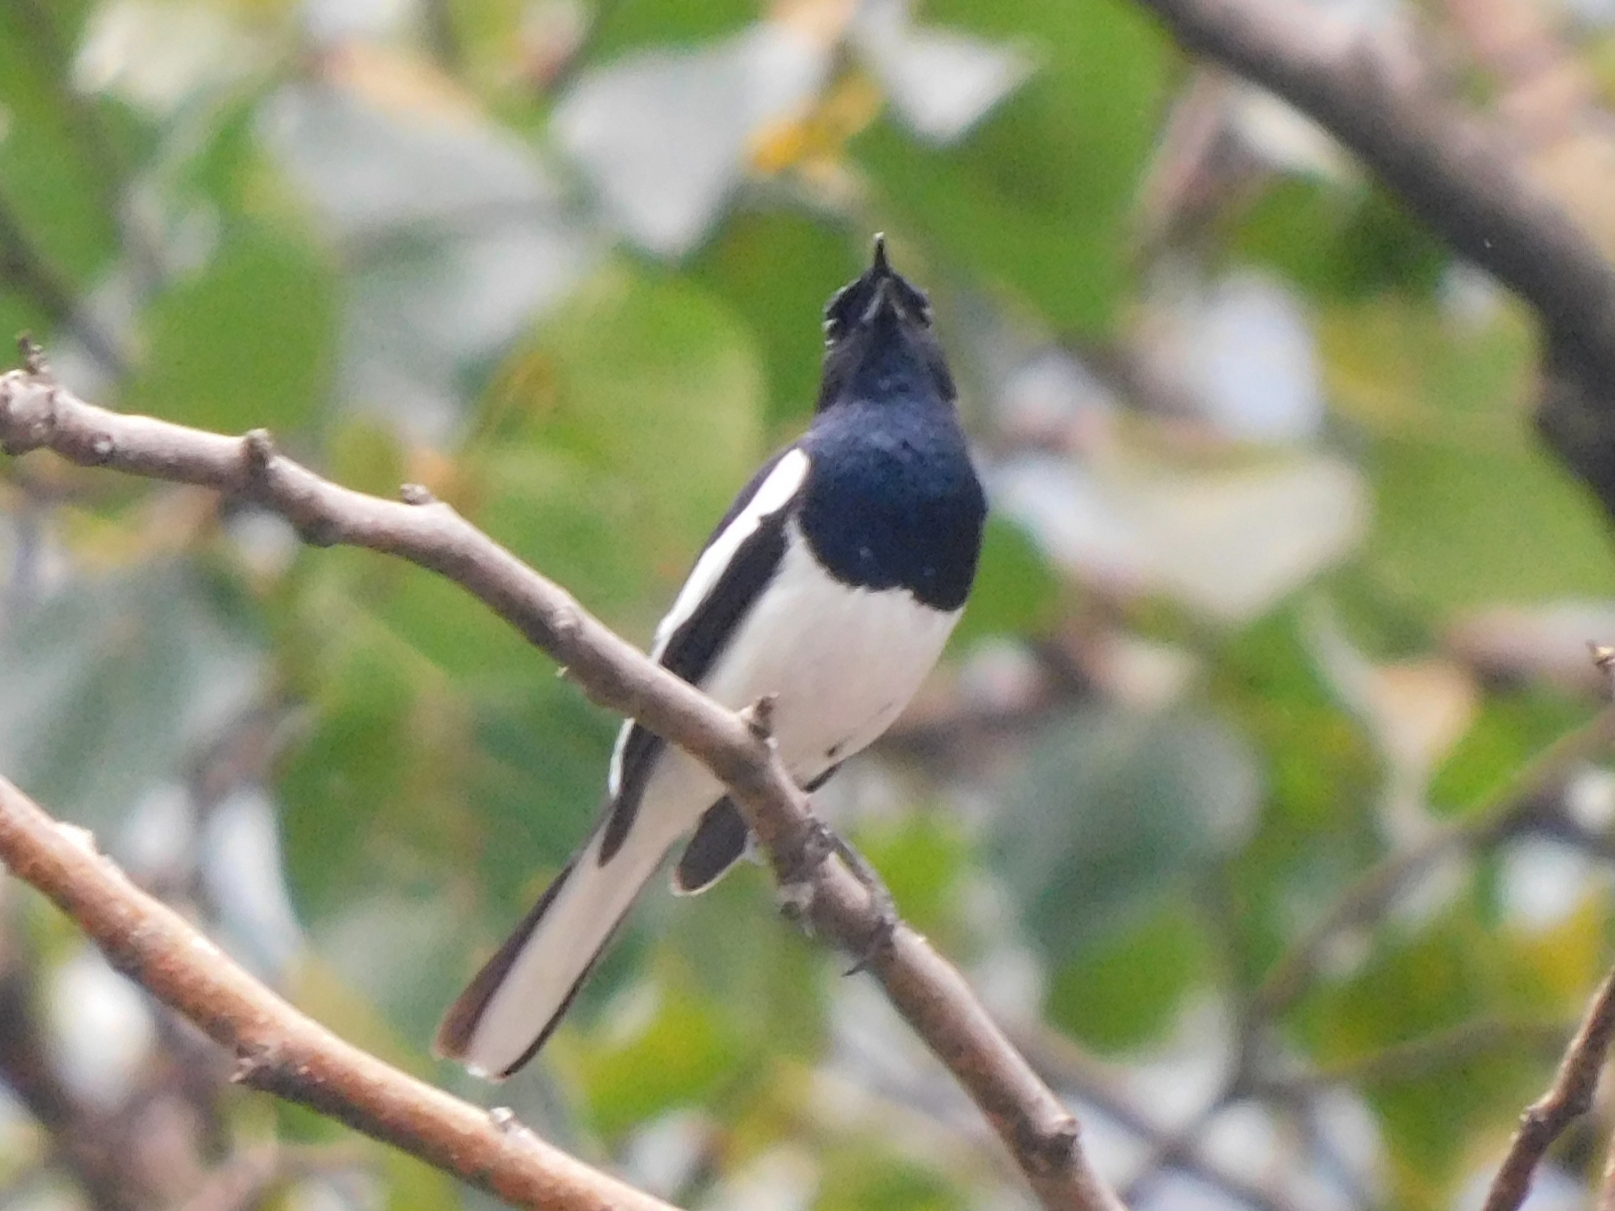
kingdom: Animalia
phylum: Chordata
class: Aves
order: Passeriformes
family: Muscicapidae
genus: Copsychus
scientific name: Copsychus saularis
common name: Oriental magpie-robin
